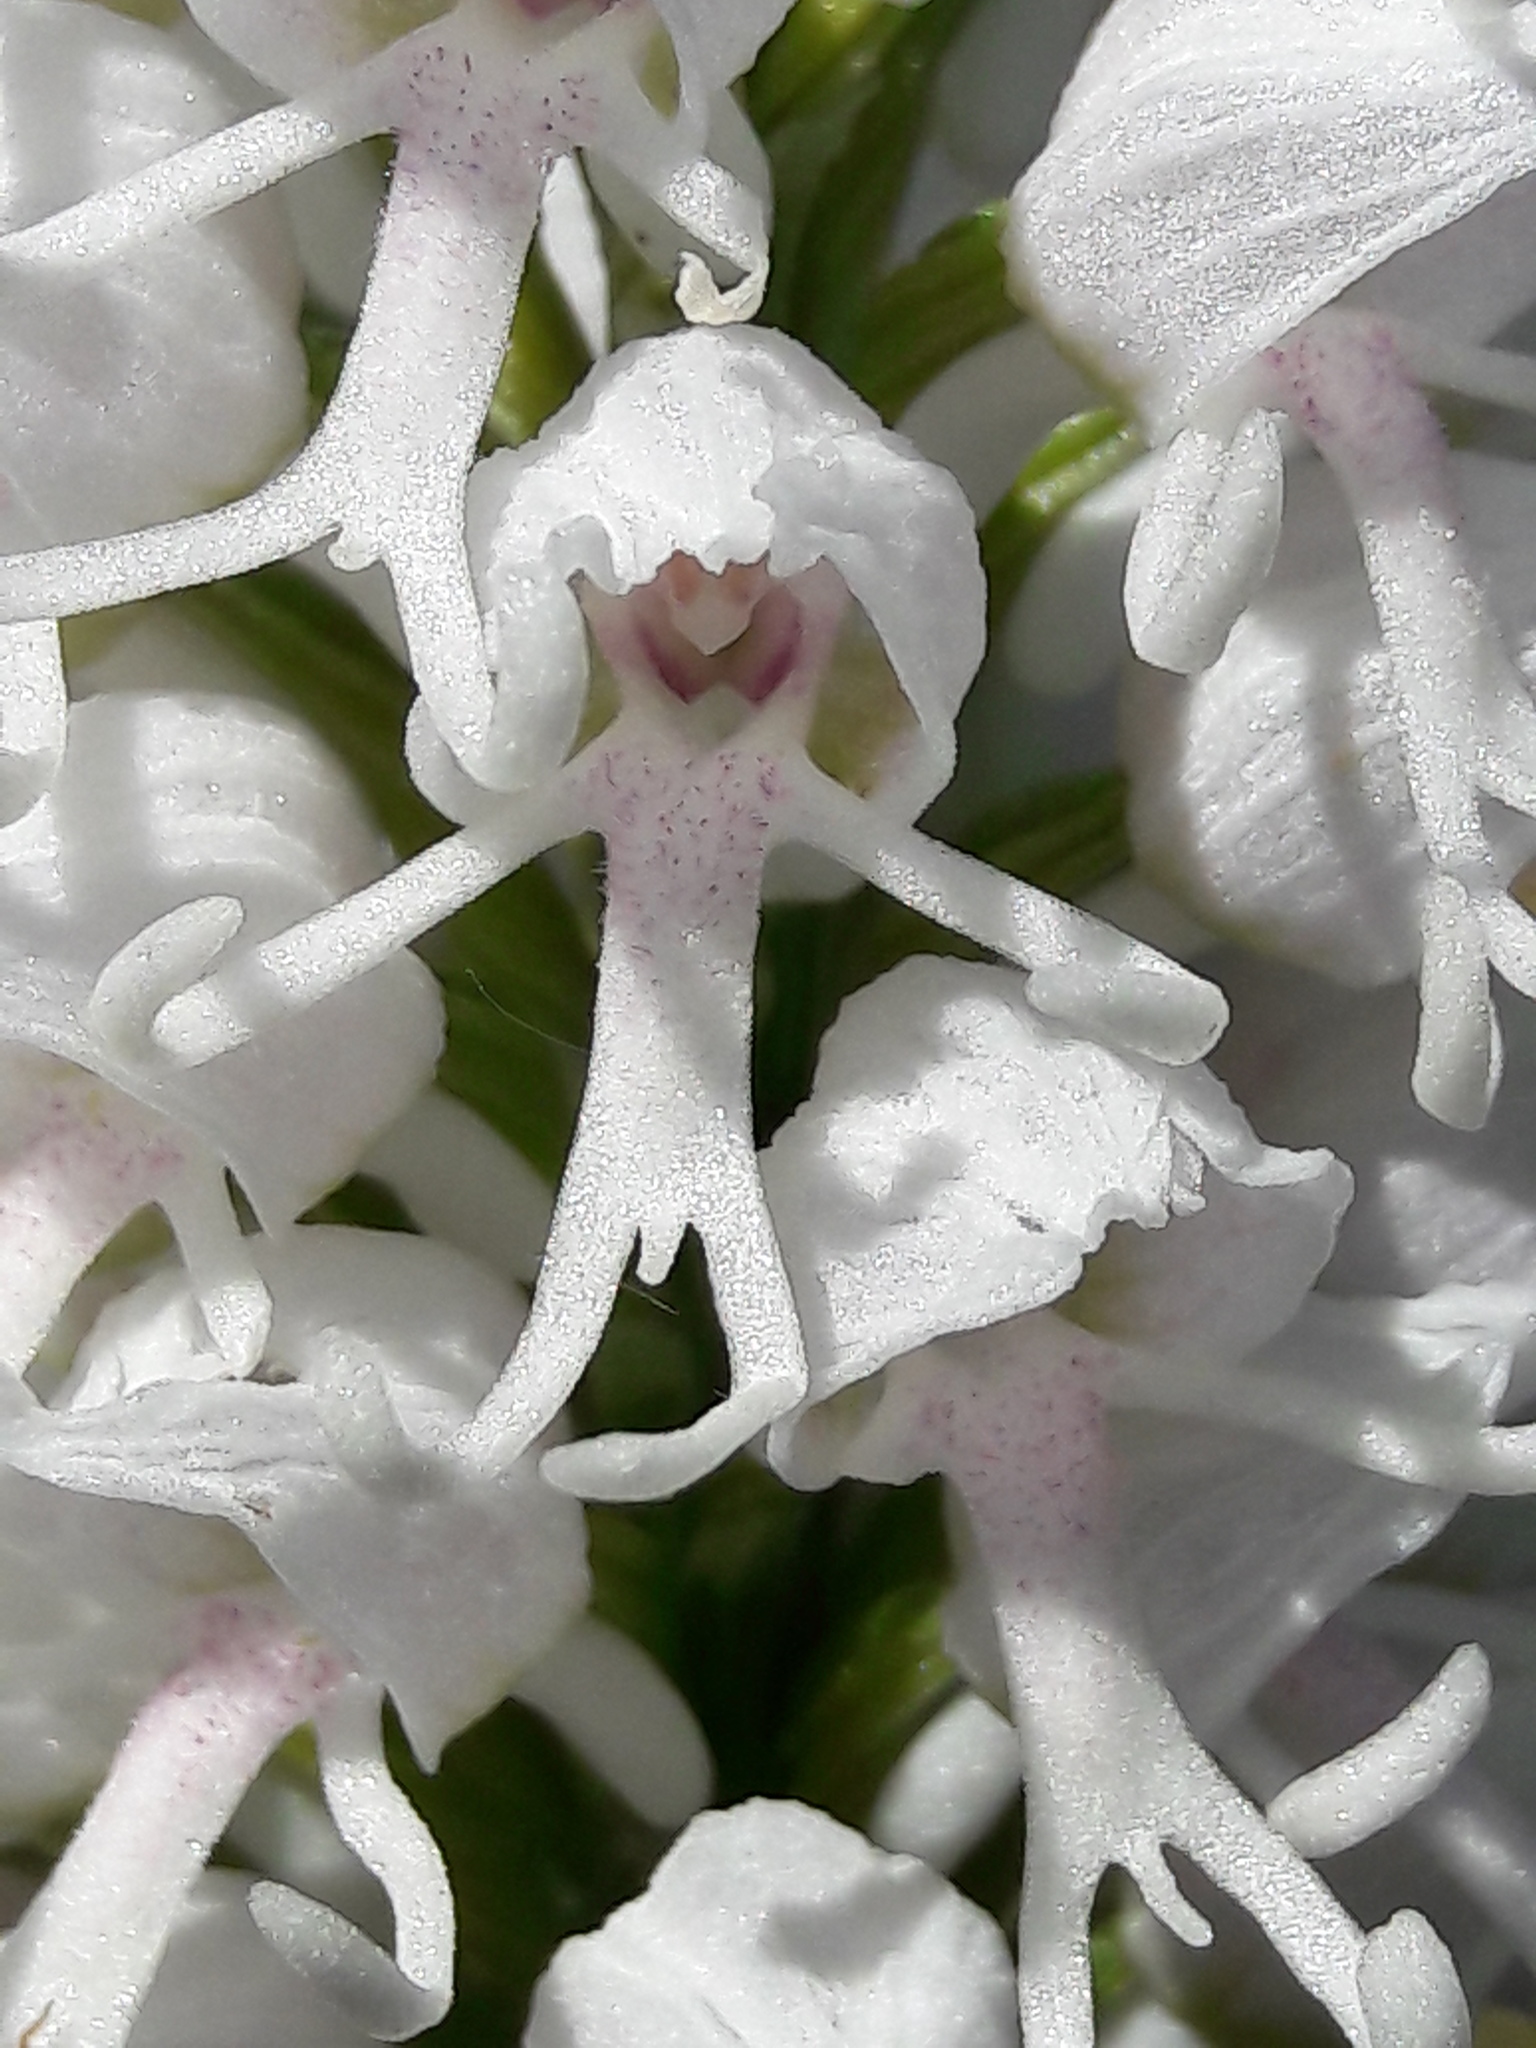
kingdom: Plantae
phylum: Tracheophyta
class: Liliopsida
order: Asparagales
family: Orchidaceae
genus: Orchis
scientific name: Orchis simia
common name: Monkey orchid
